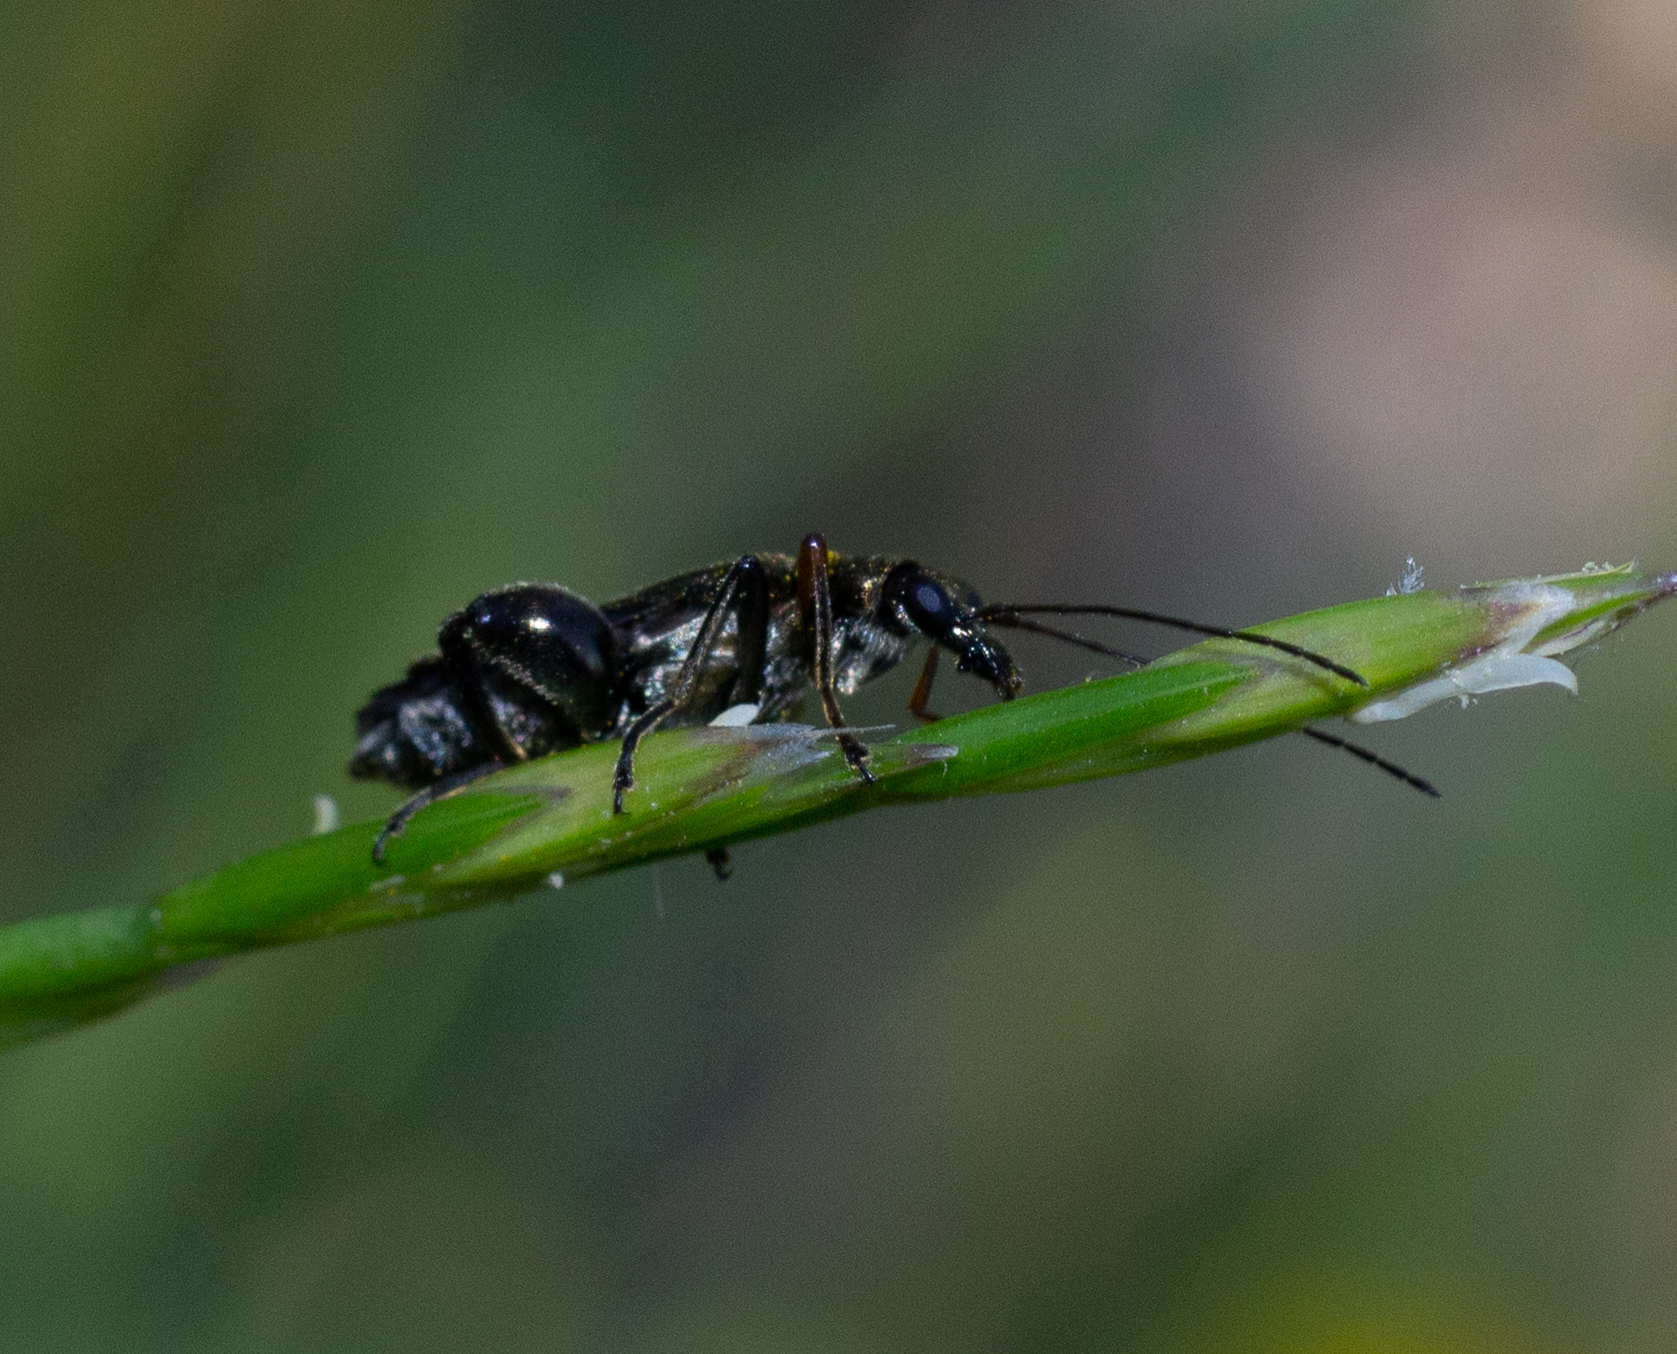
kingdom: Animalia
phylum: Arthropoda
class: Insecta
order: Coleoptera
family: Oedemeridae
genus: Oedemera
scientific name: Oedemera flavipes
